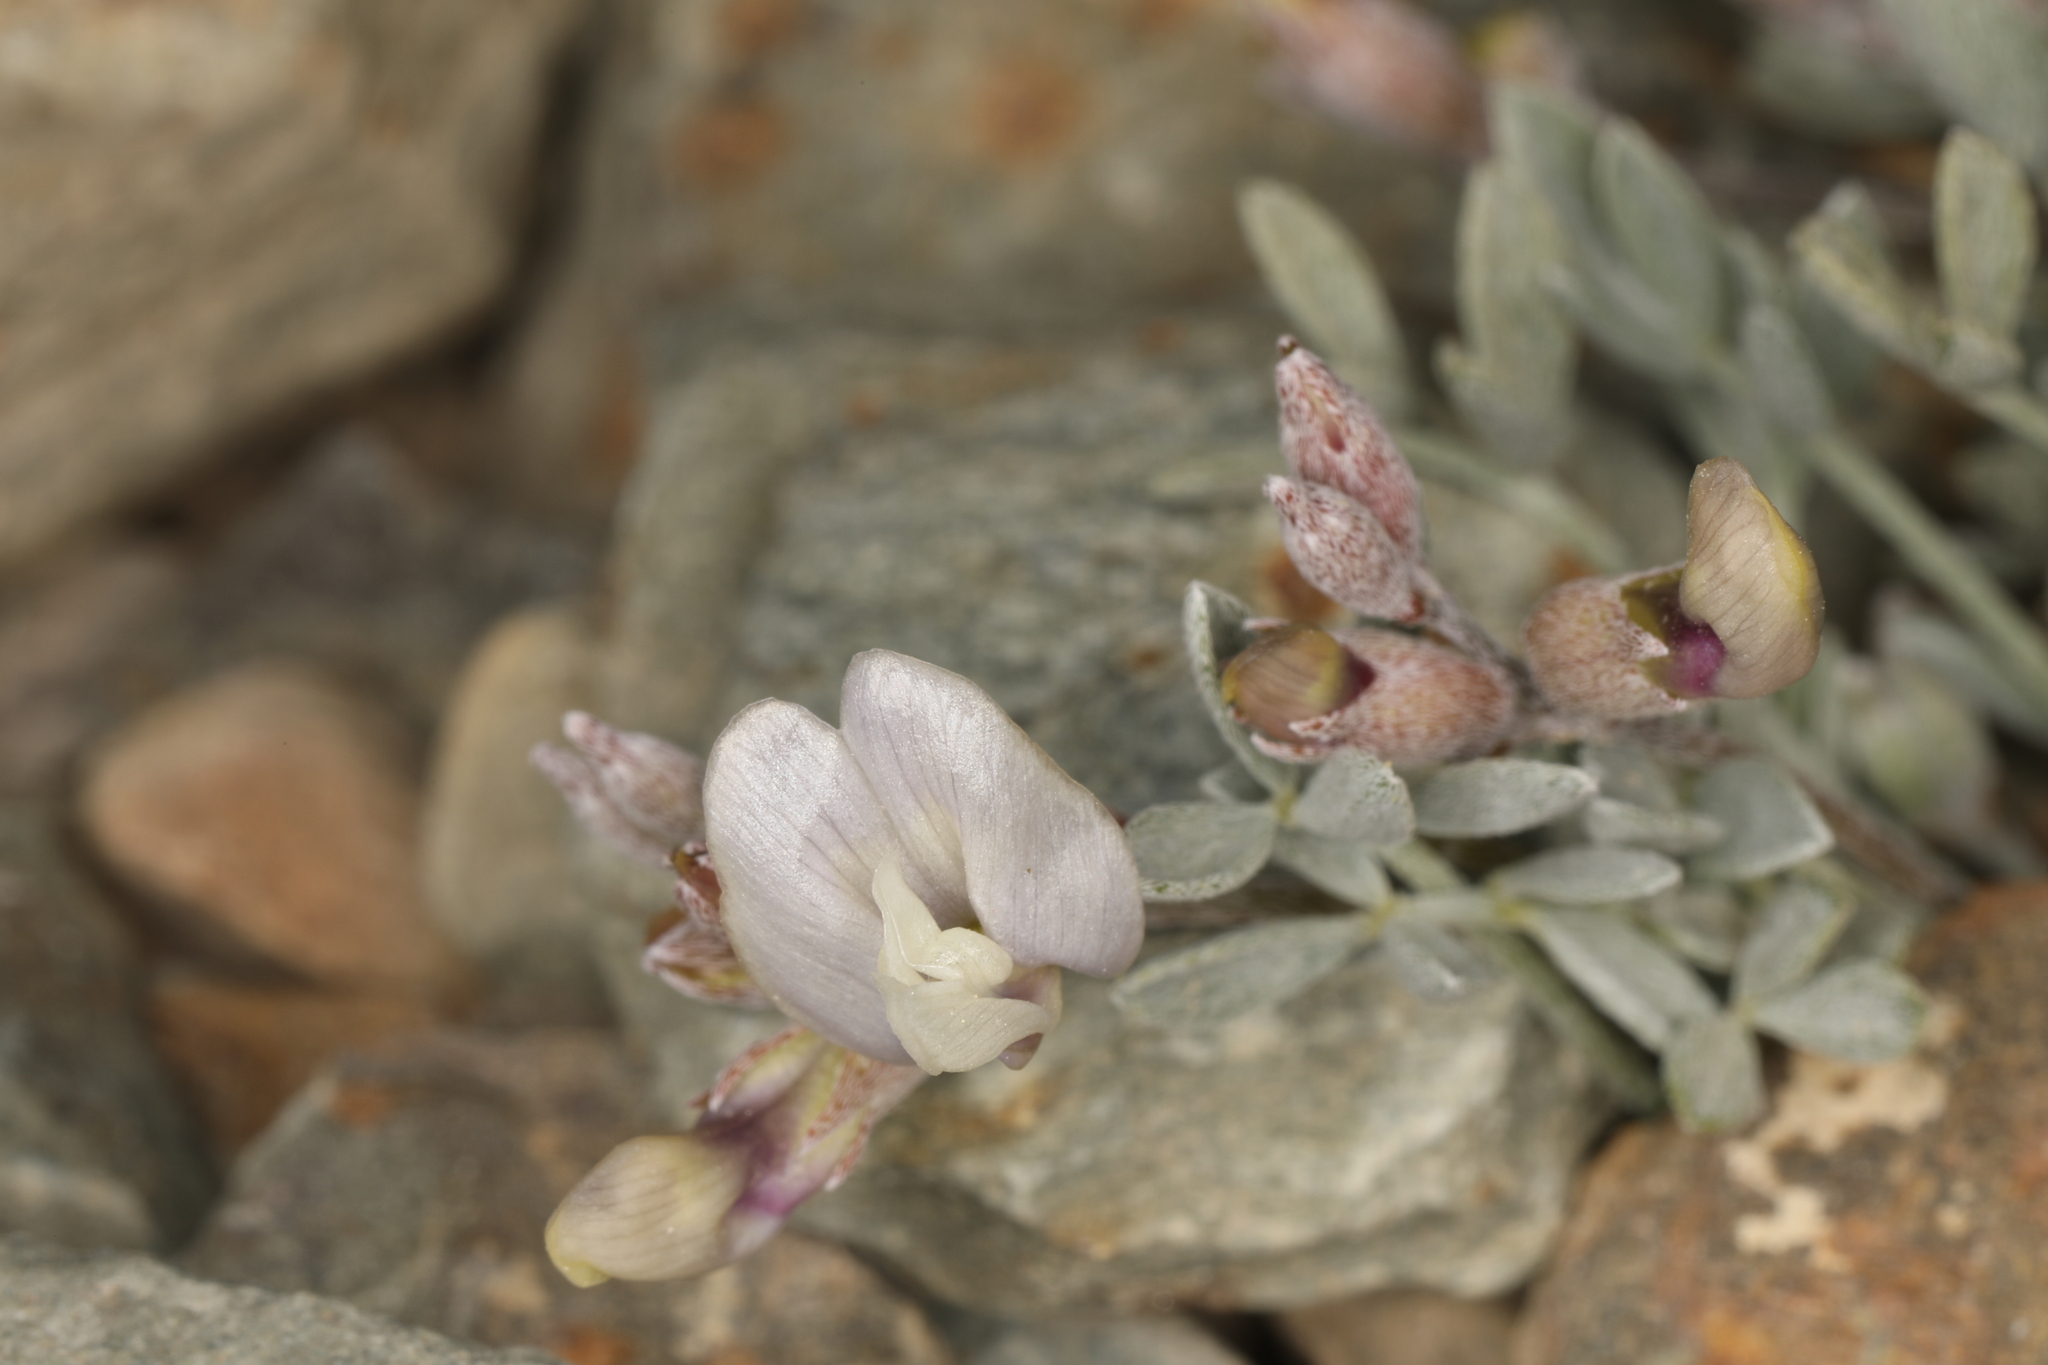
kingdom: Plantae
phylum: Tracheophyta
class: Magnoliopsida
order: Fabales
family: Fabaceae
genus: Astragalus
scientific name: Astragalus calycosus
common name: King's milkvetch
